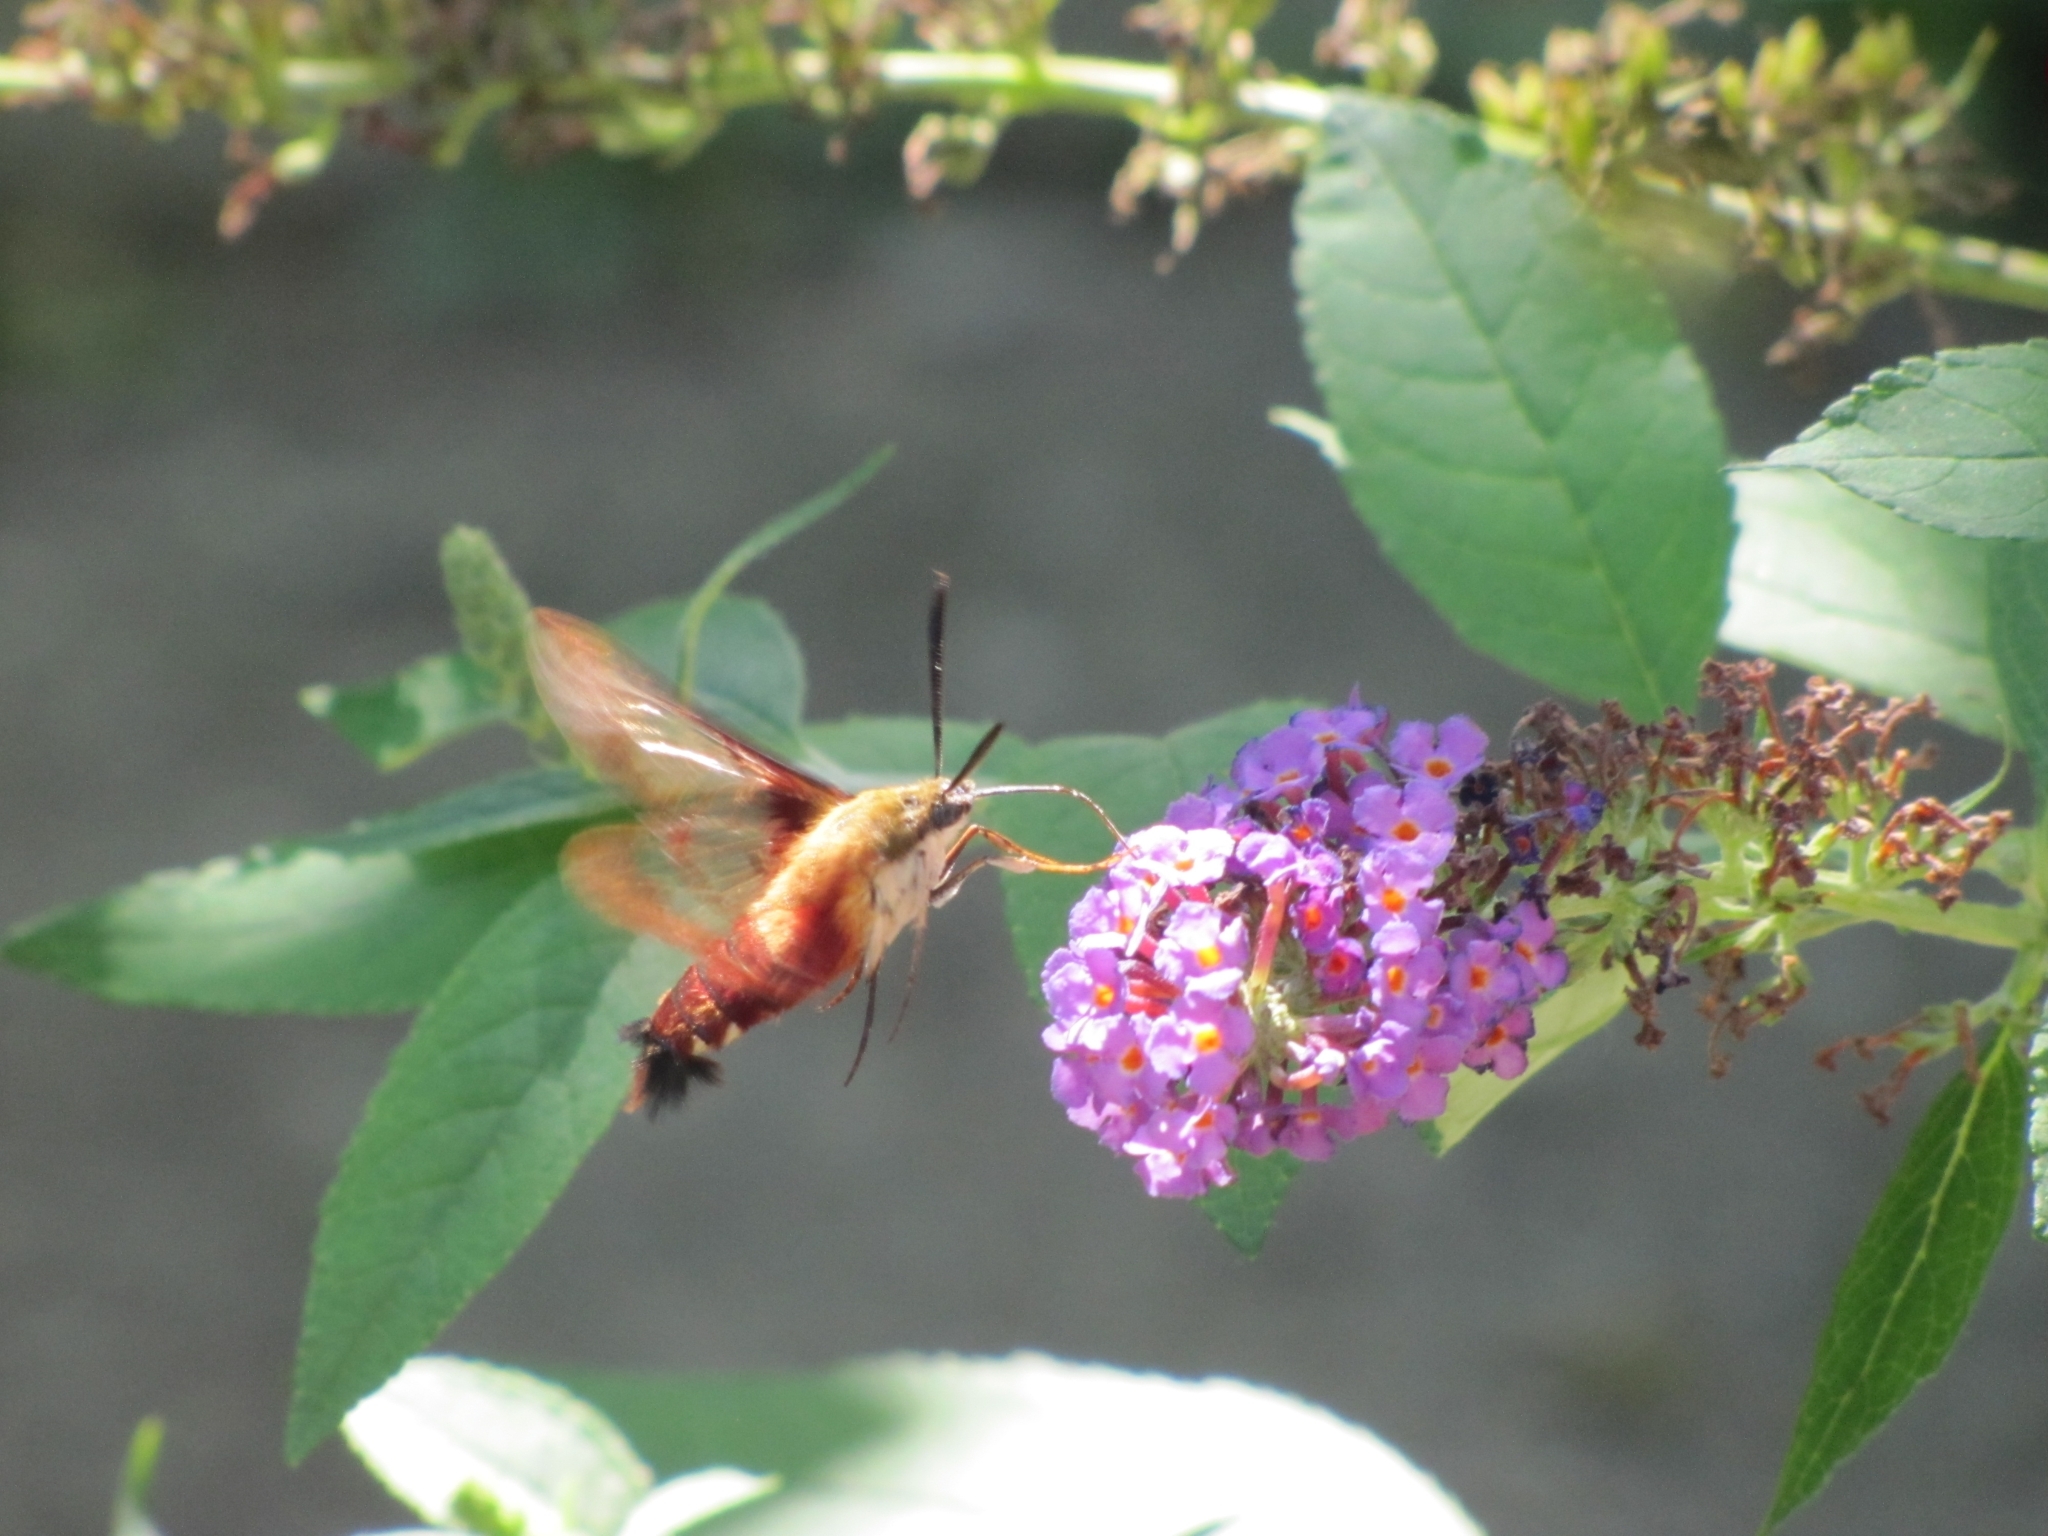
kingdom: Animalia
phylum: Arthropoda
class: Insecta
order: Lepidoptera
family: Sphingidae
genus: Hemaris
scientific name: Hemaris thysbe
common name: Common clear-wing
